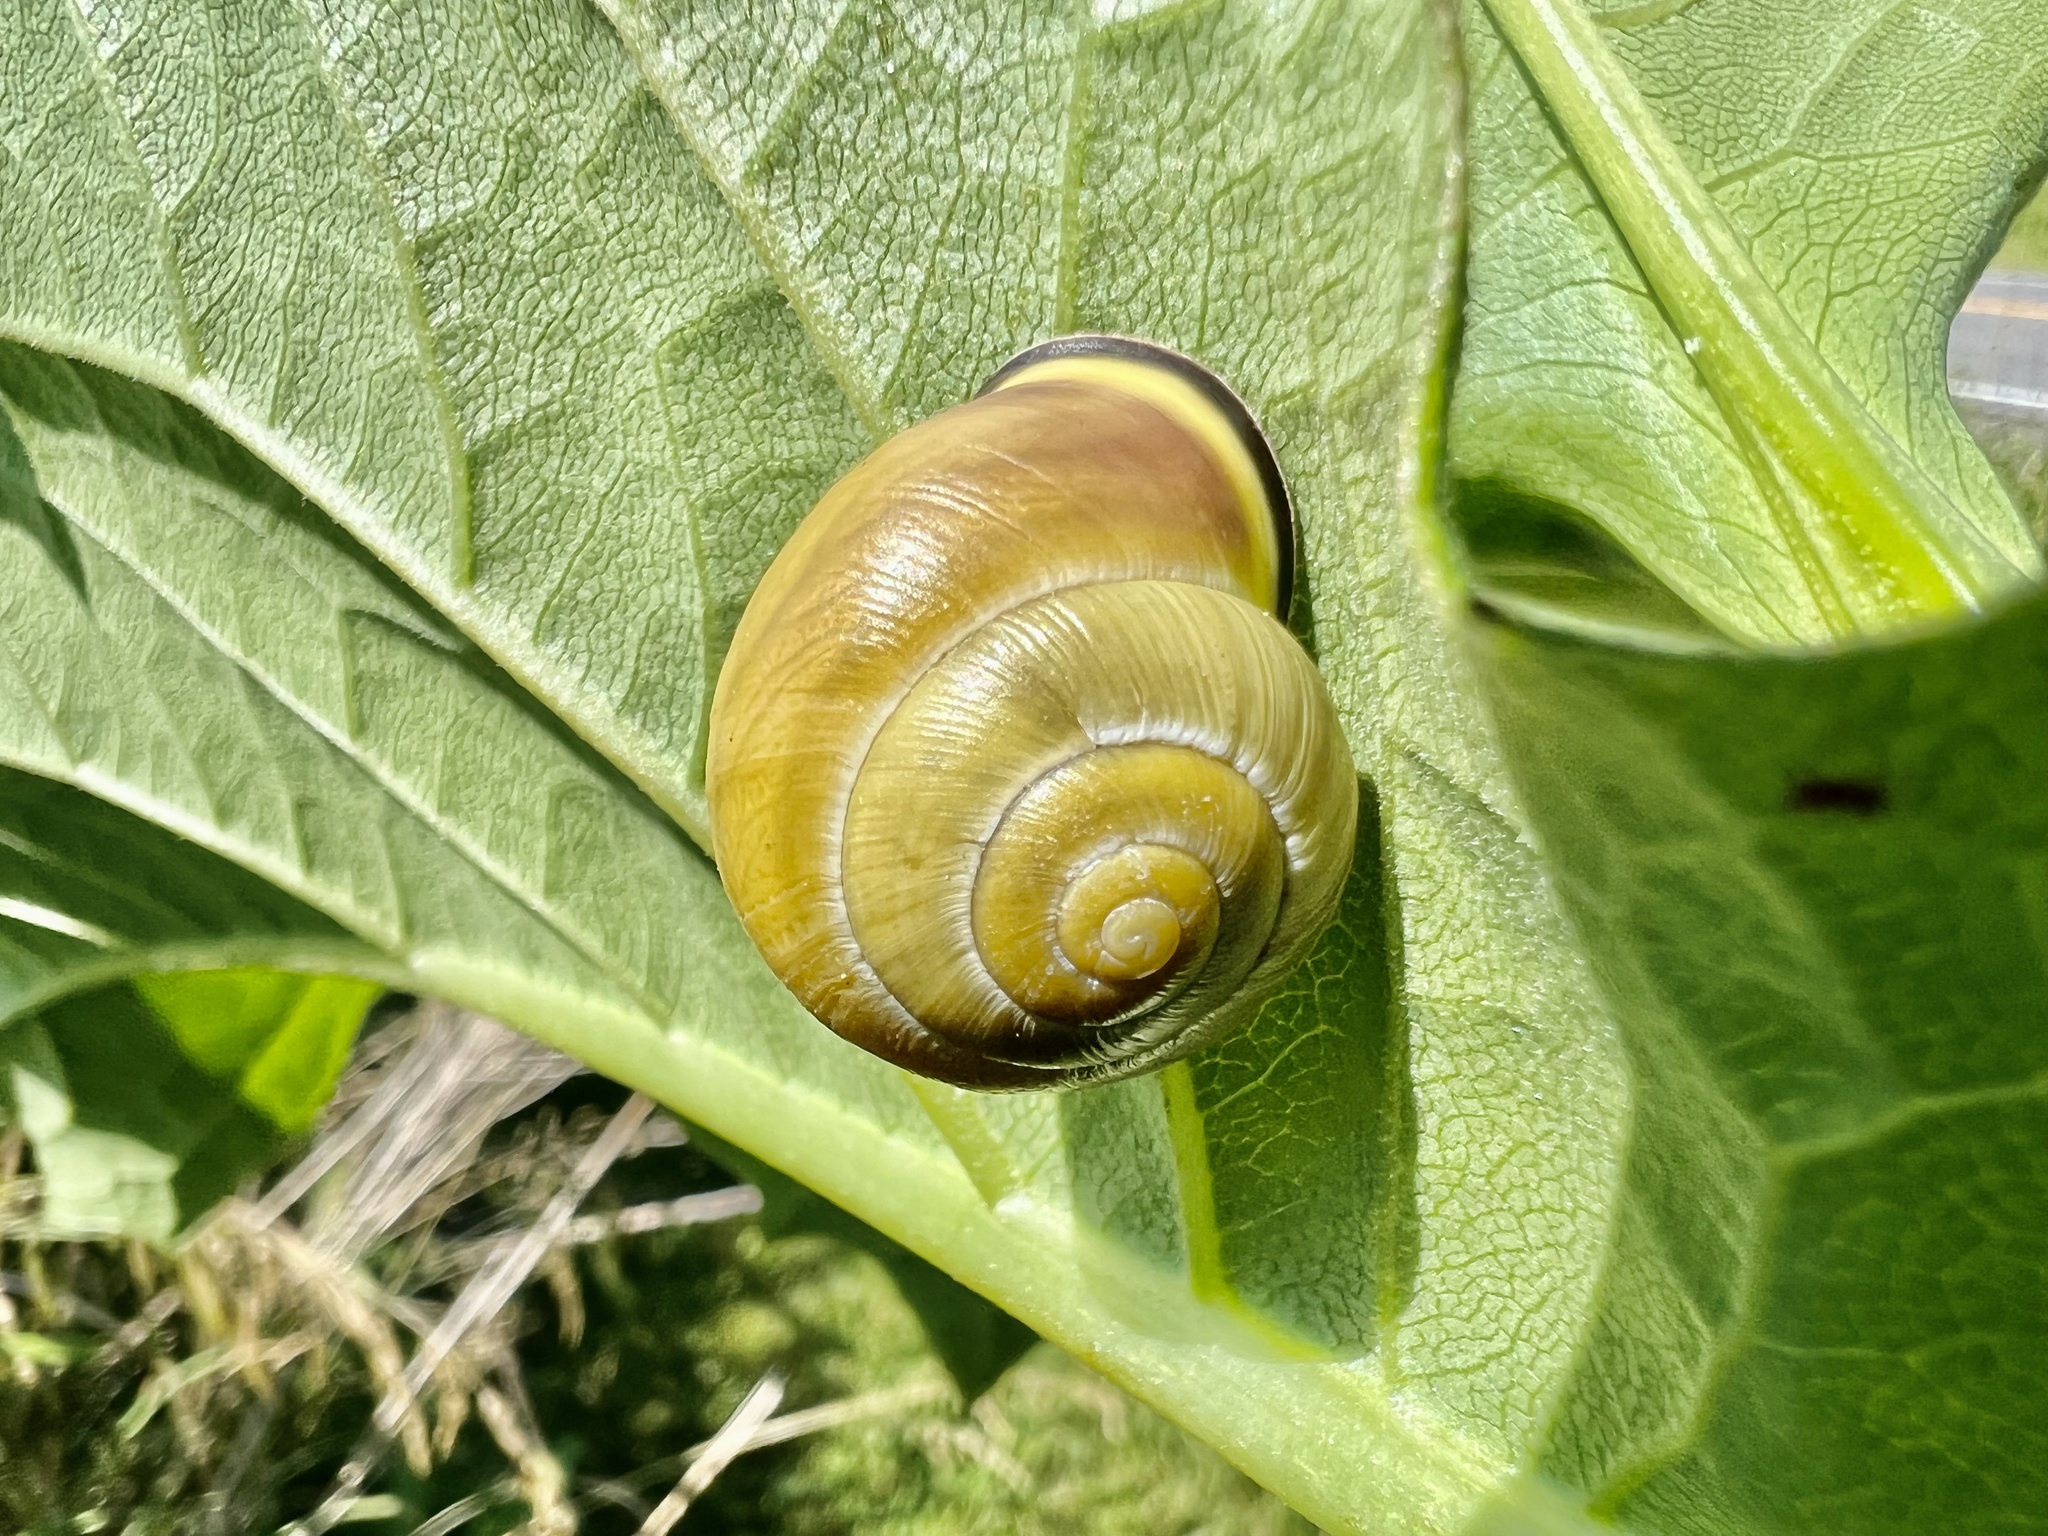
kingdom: Animalia
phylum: Mollusca
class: Gastropoda
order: Stylommatophora
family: Helicidae
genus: Cepaea
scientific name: Cepaea nemoralis
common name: Grovesnail
